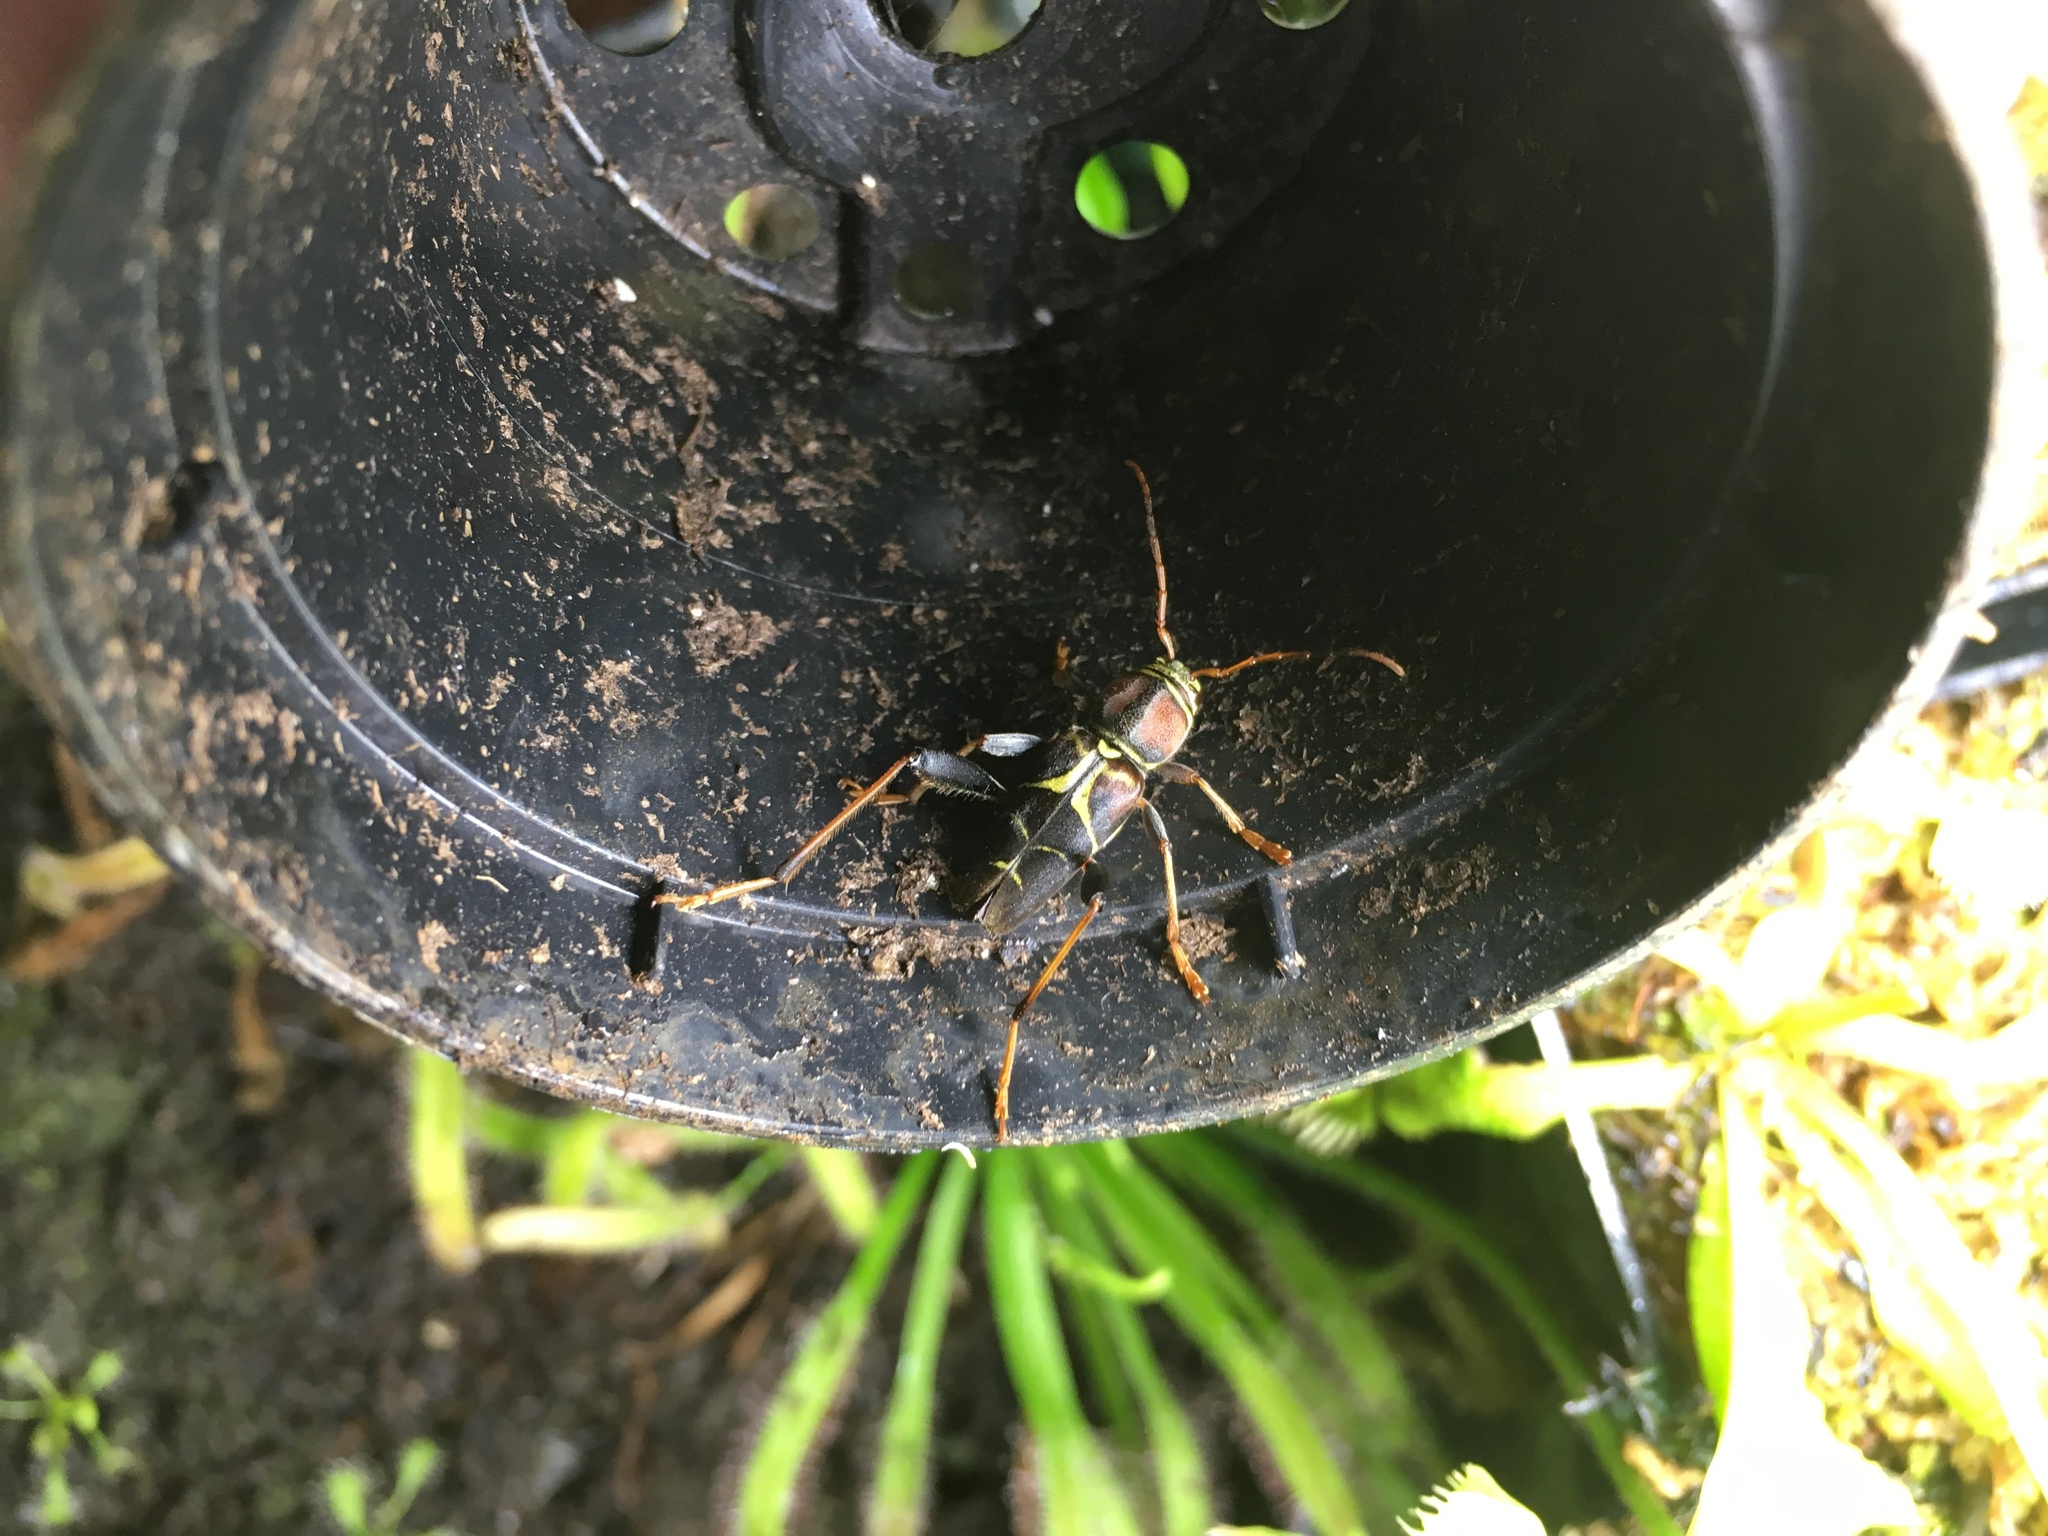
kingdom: Animalia
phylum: Arthropoda
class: Insecta
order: Coleoptera
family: Cerambycidae
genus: Neoclytus
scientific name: Neoclytus mucronatus
